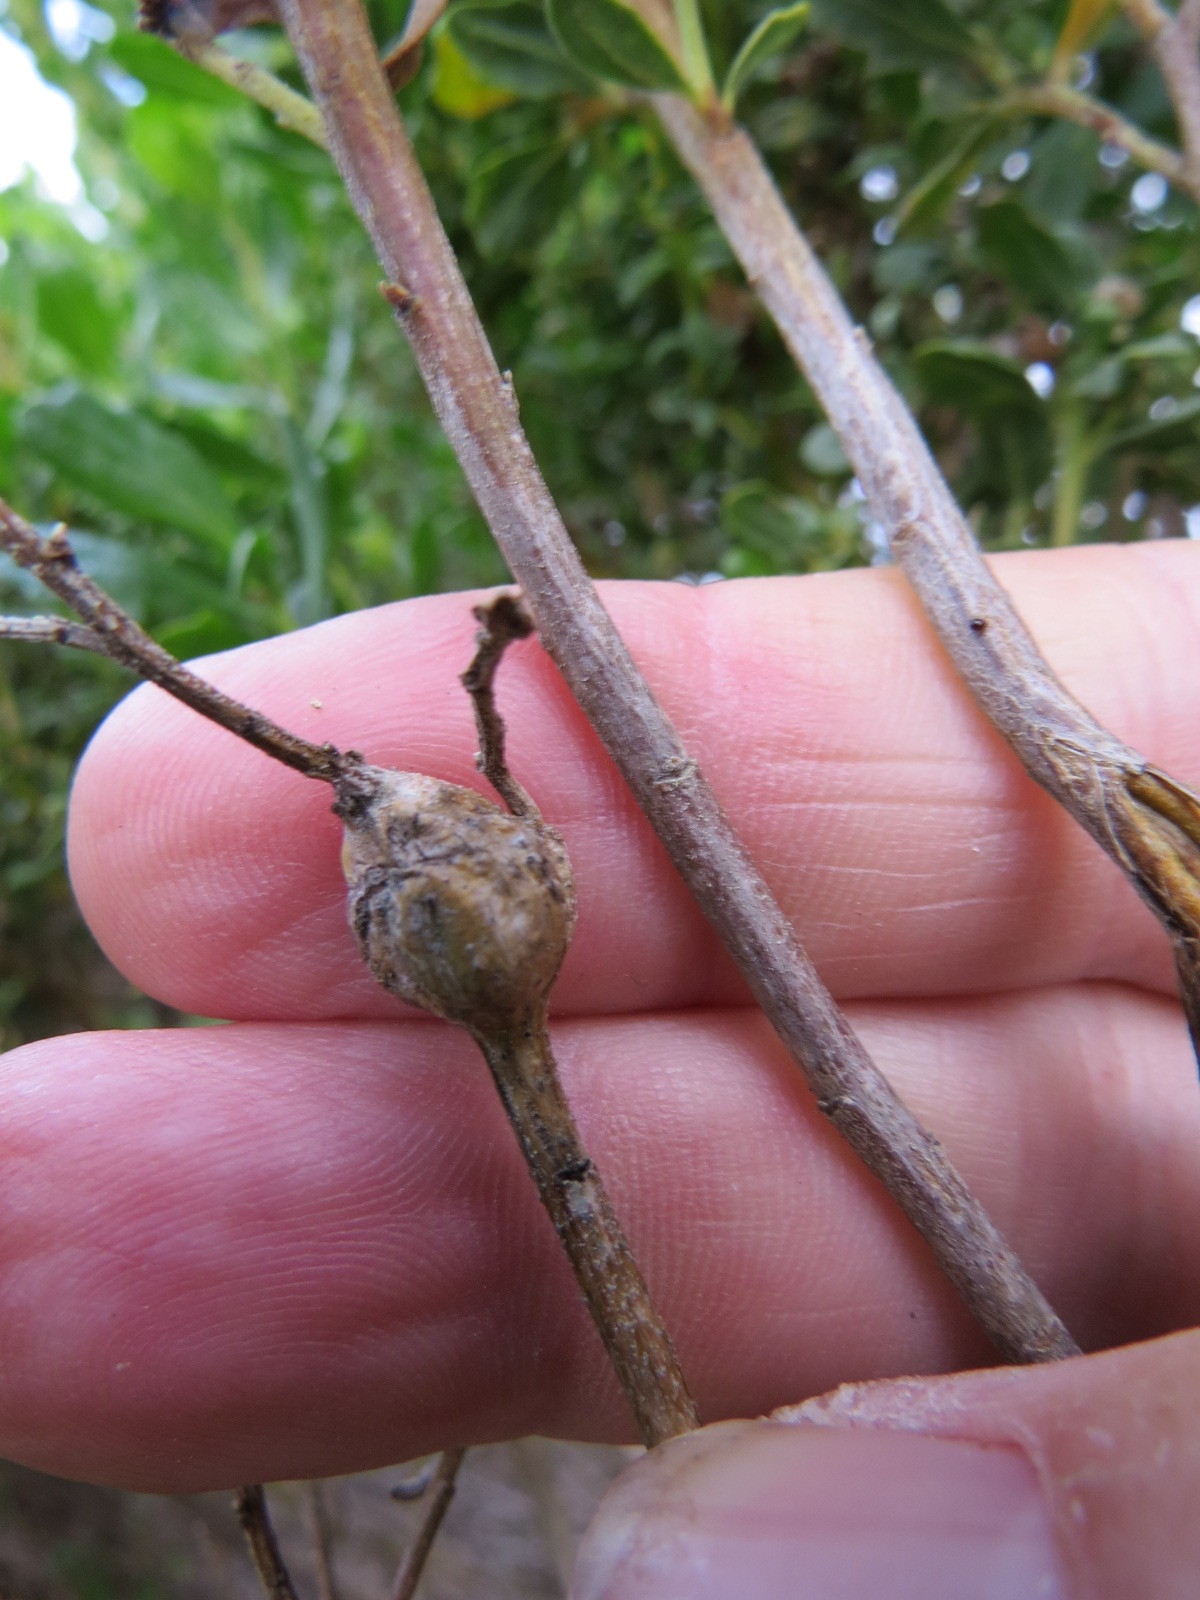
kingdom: Animalia
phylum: Arthropoda
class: Insecta
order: Lepidoptera
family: Gelechiidae
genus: Gnorimoschema
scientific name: Gnorimoschema baccharisella
